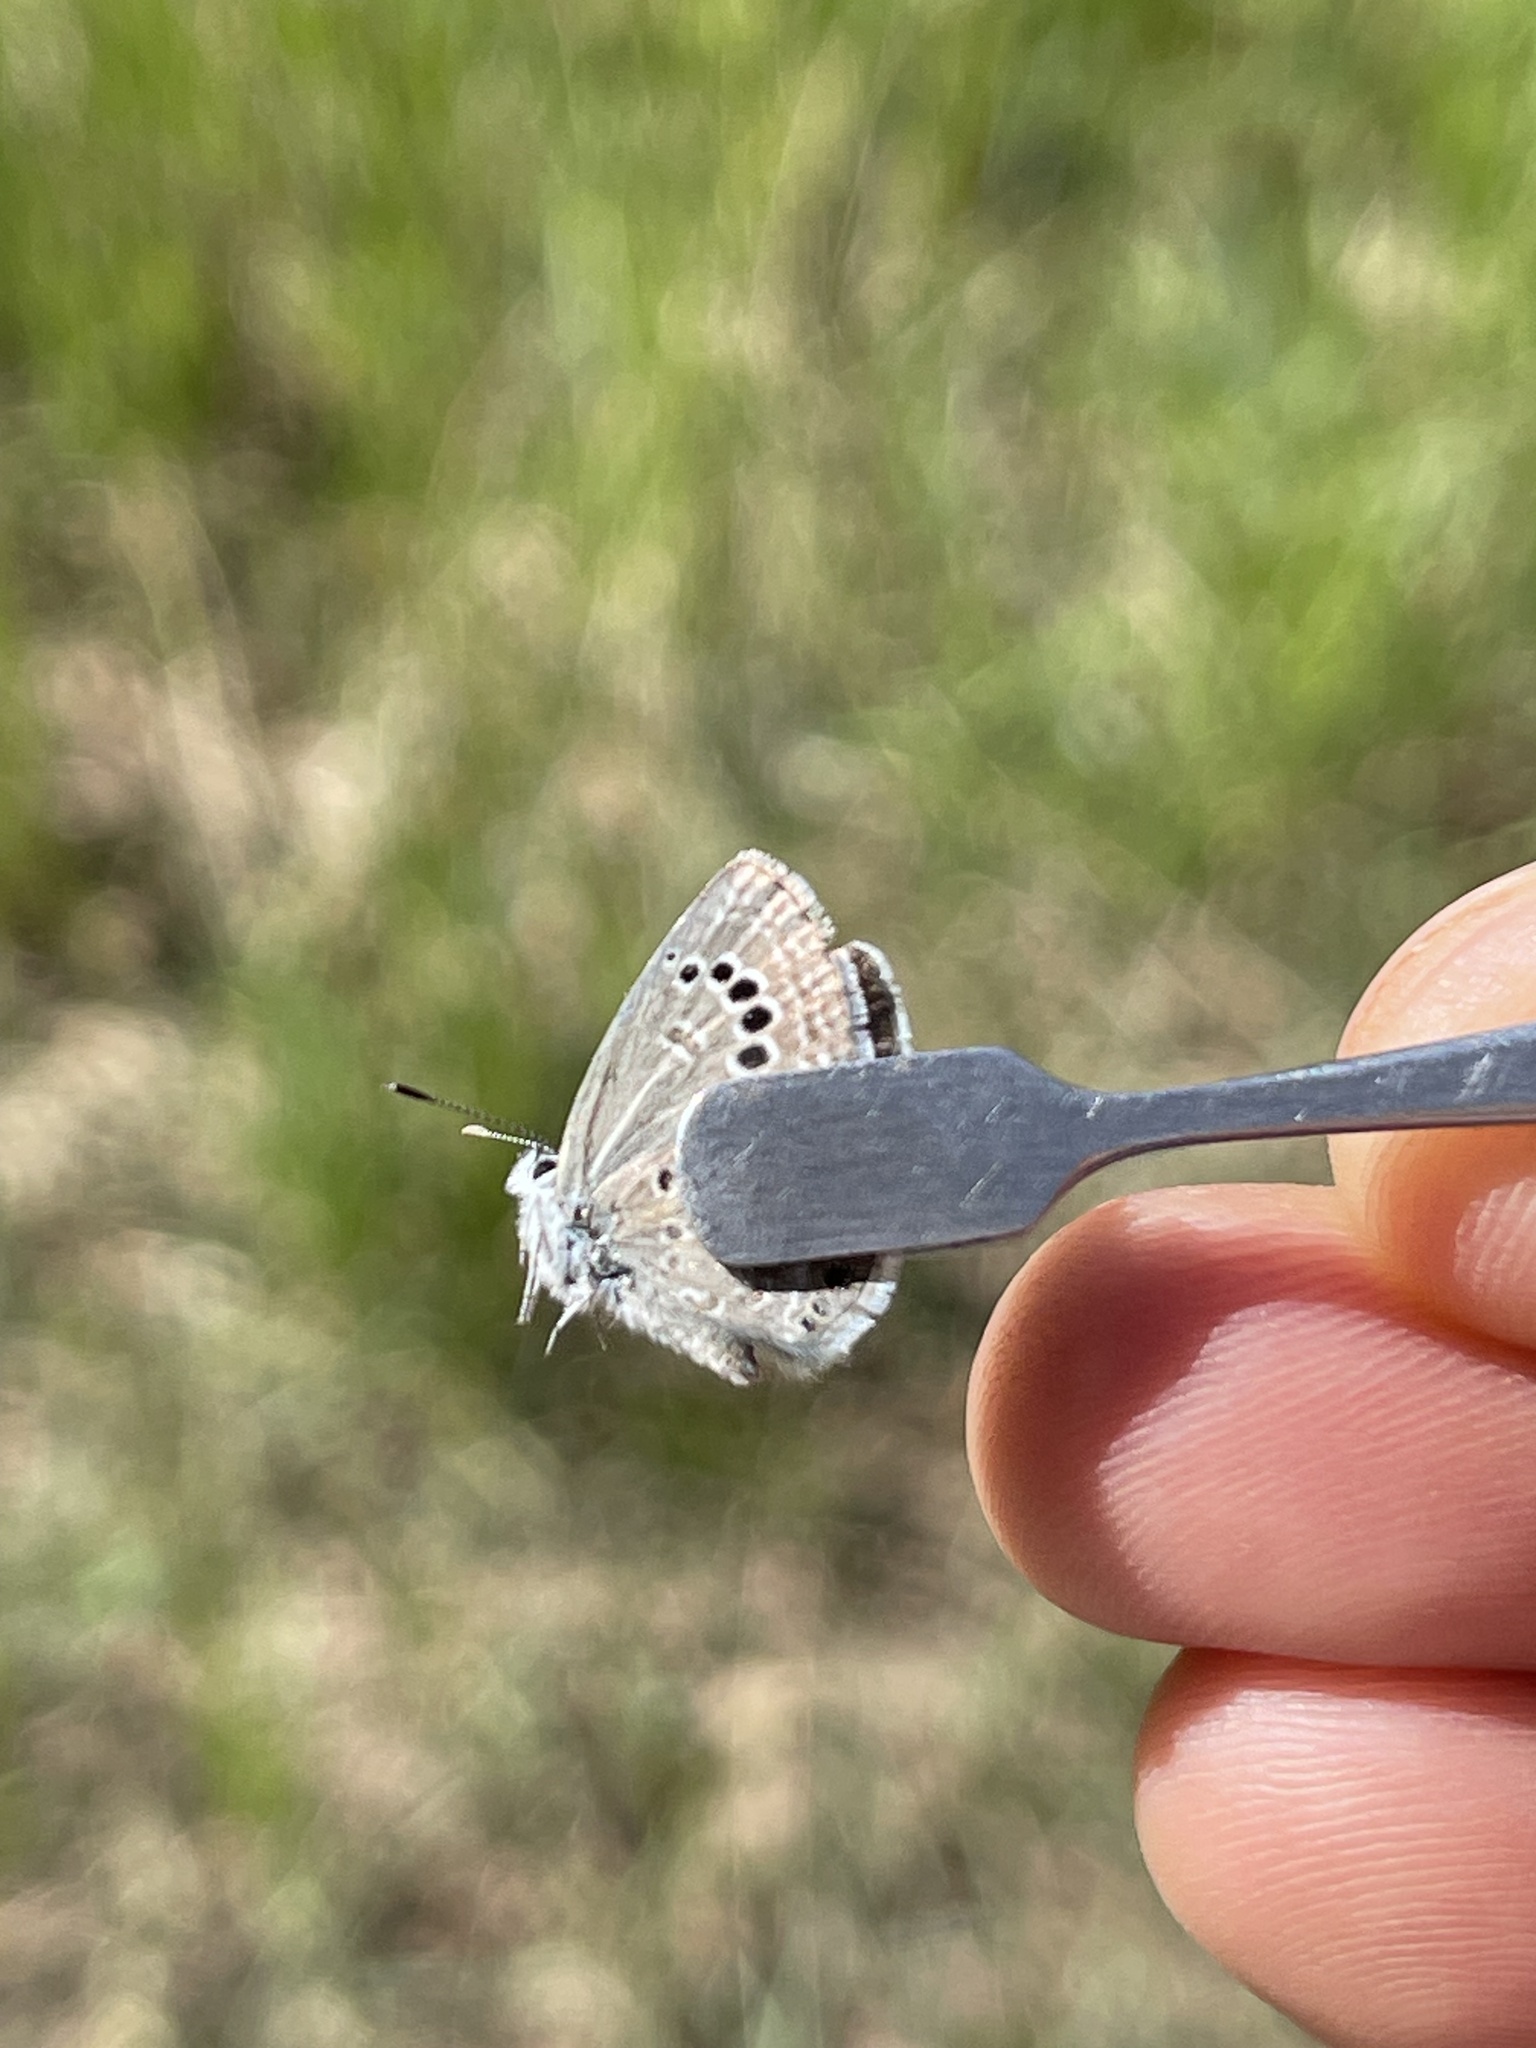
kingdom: Animalia
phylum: Arthropoda
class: Insecta
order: Lepidoptera
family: Lycaenidae
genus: Echinargus
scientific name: Echinargus isola
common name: Reakirt's blue
